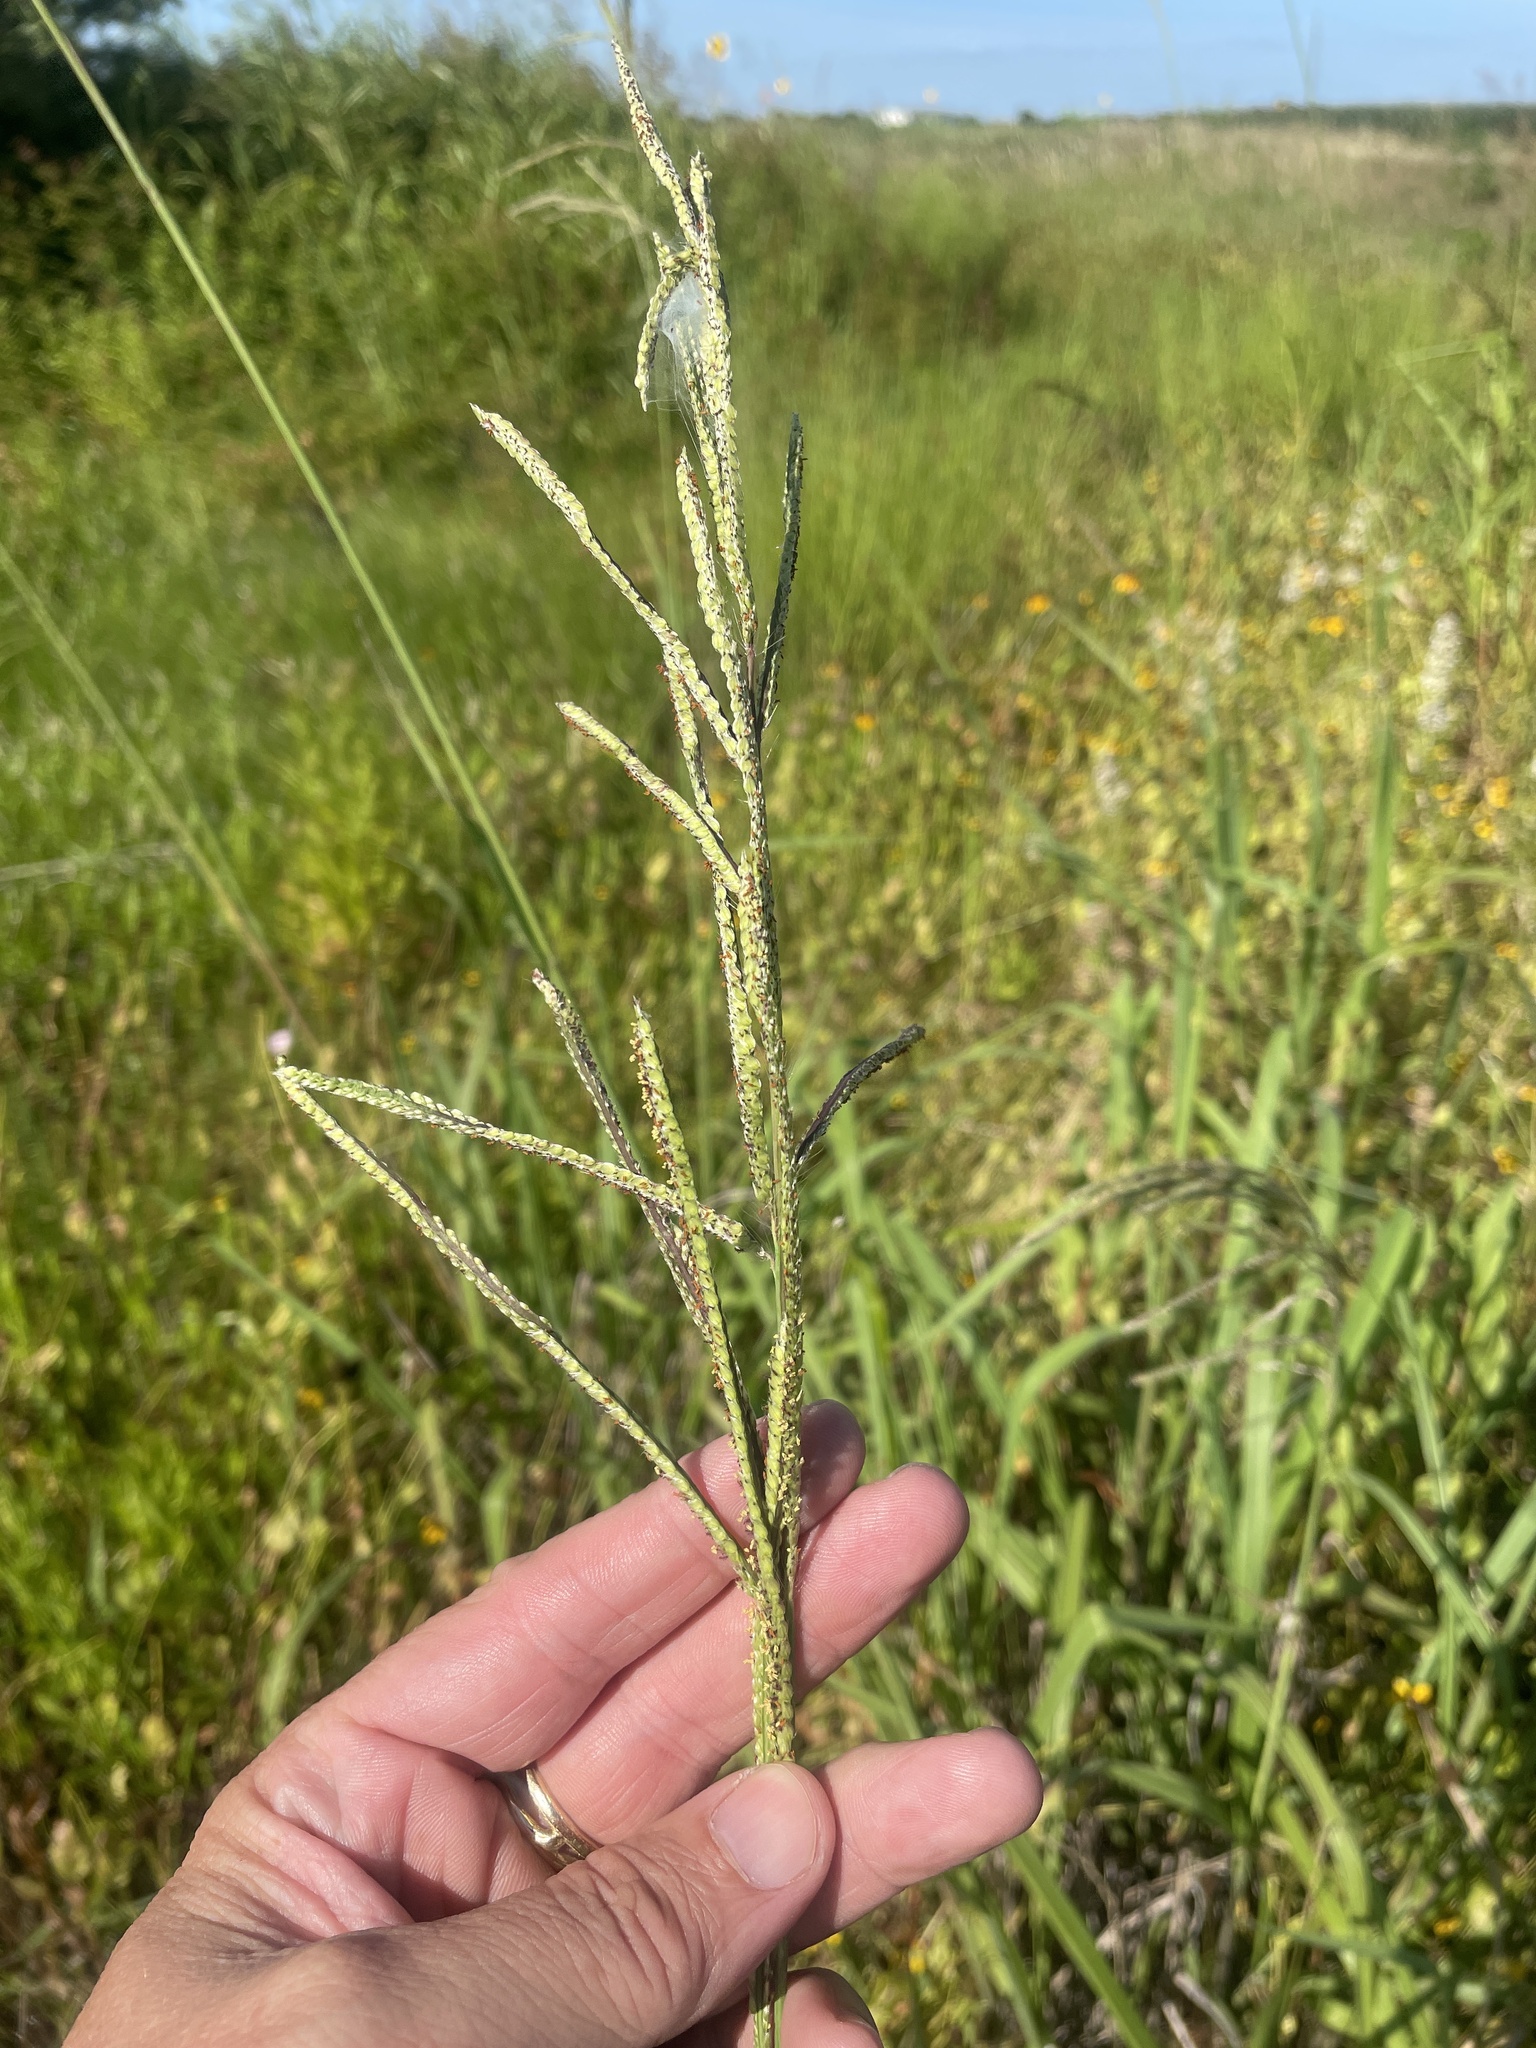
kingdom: Plantae
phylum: Tracheophyta
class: Liliopsida
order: Poales
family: Poaceae
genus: Paspalum
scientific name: Paspalum urvillei
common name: Vasey's grass
